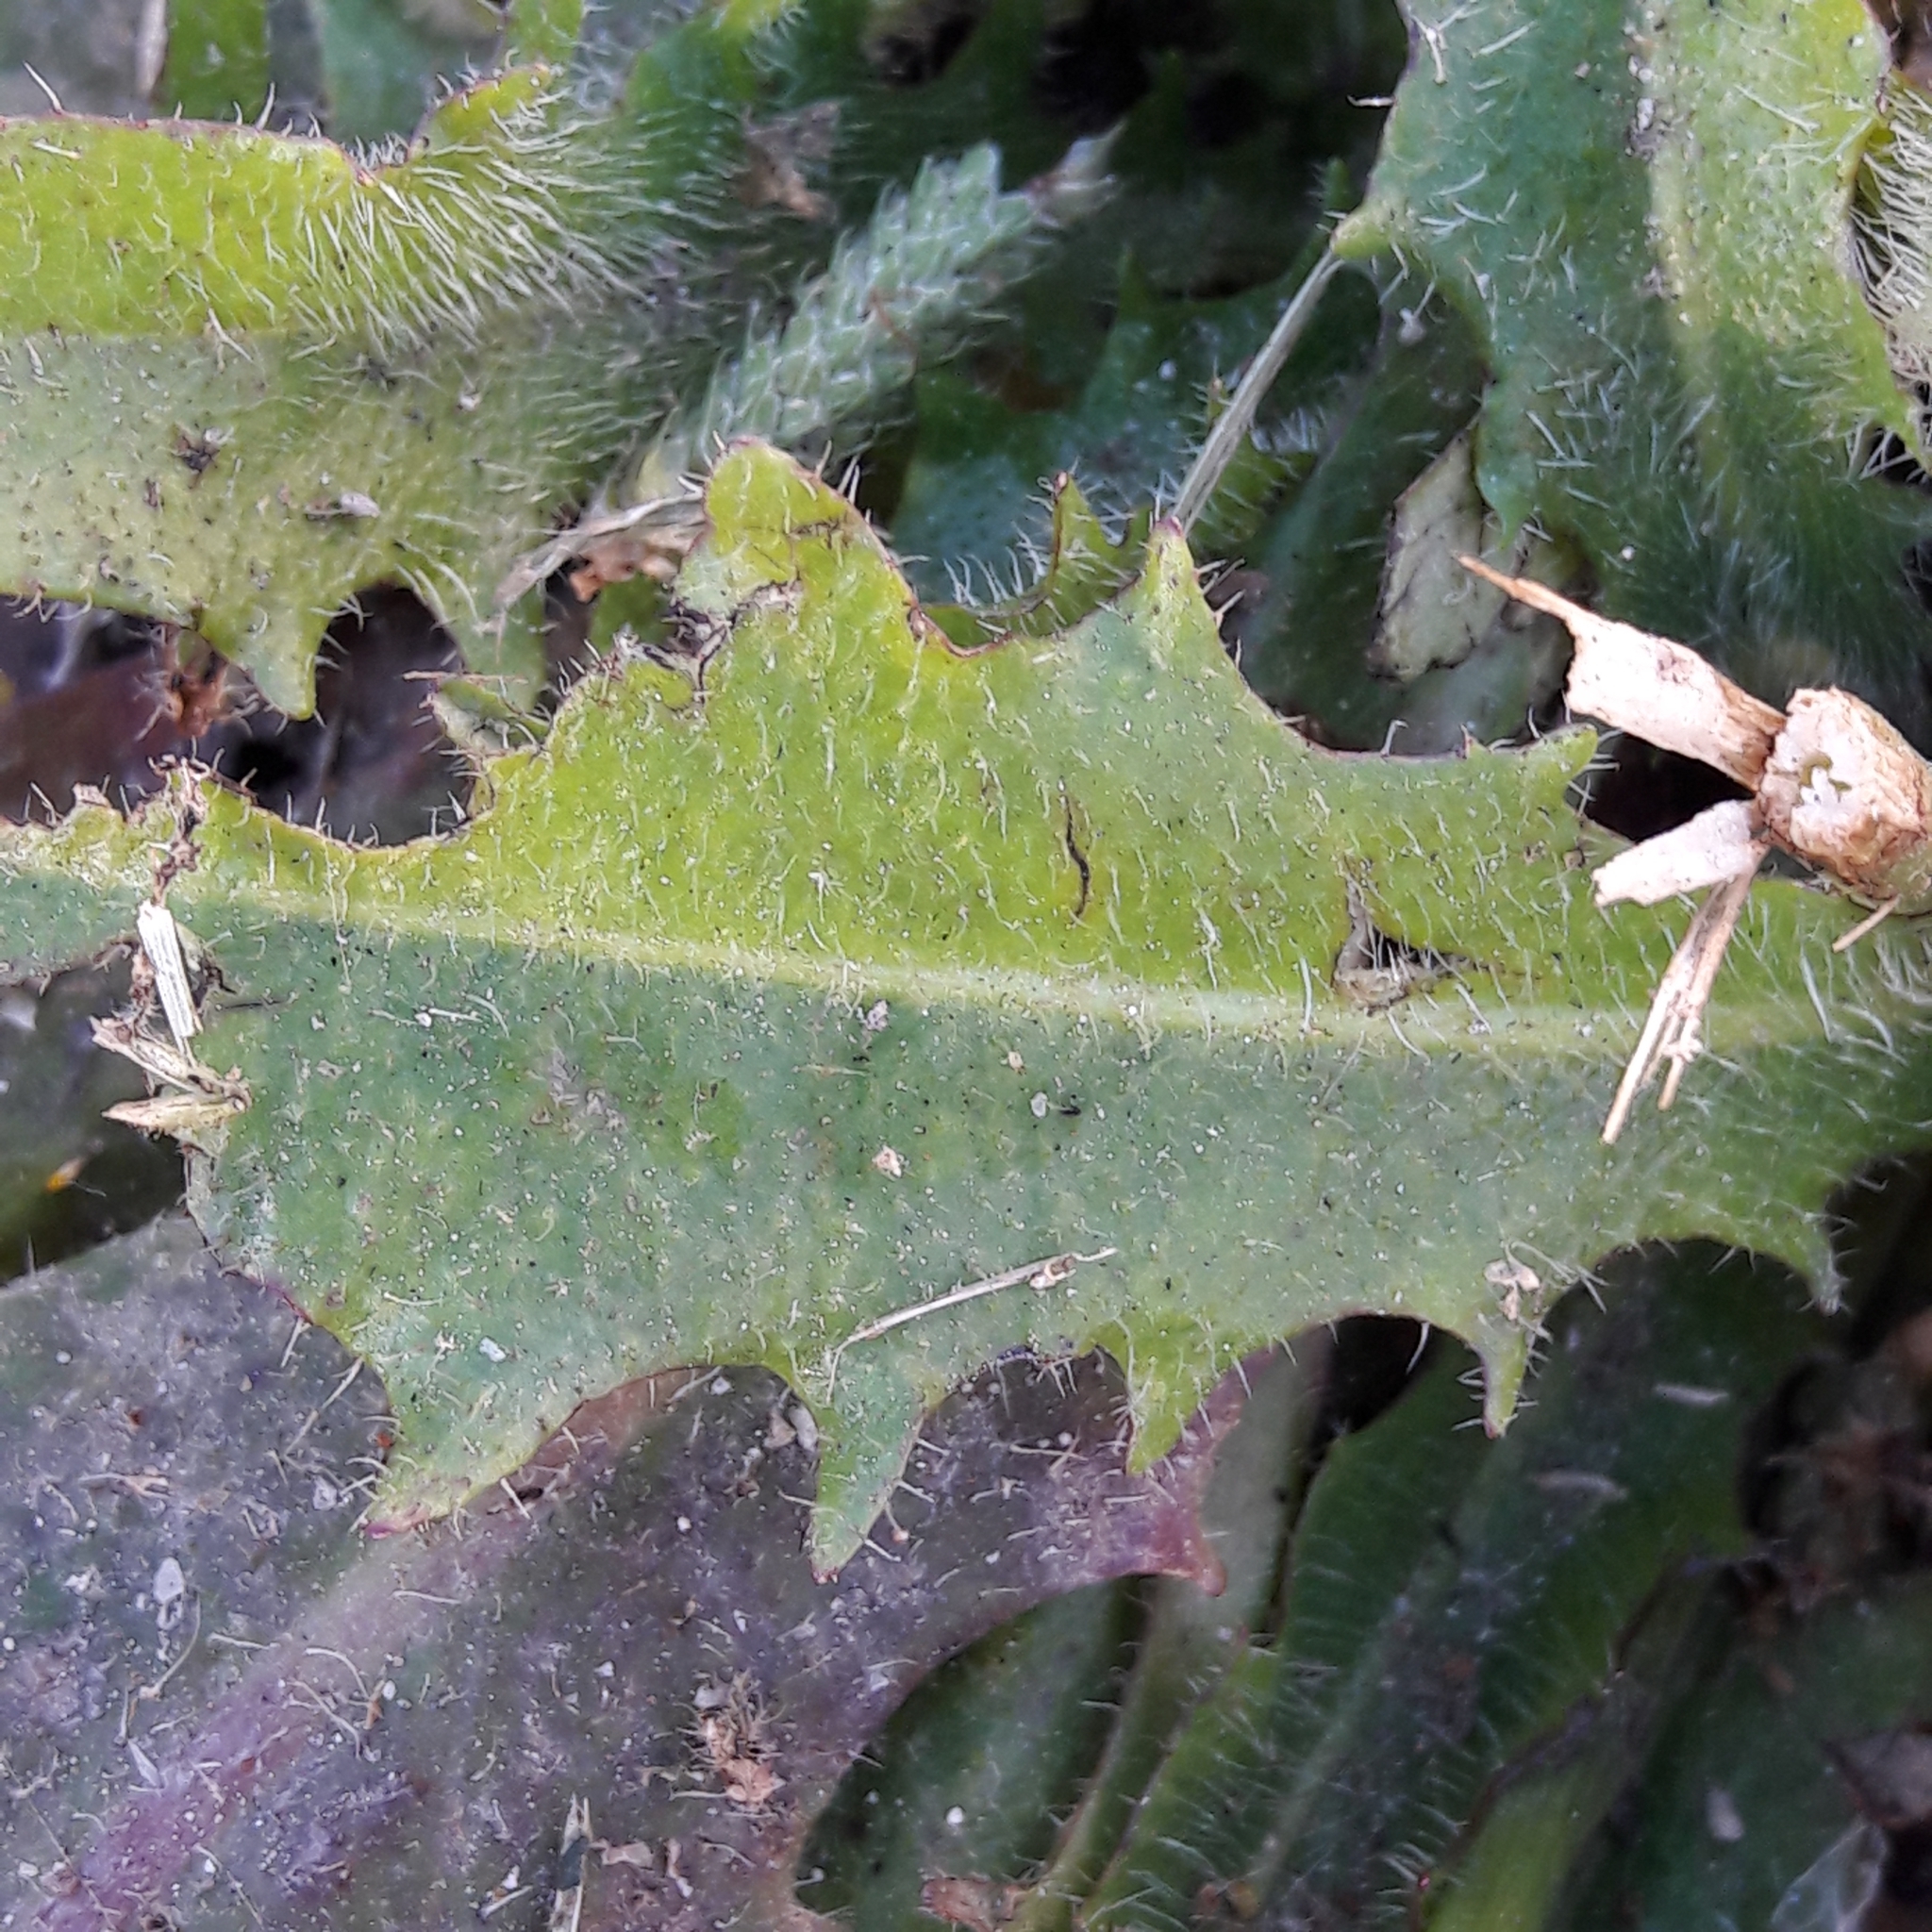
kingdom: Plantae
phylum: Tracheophyta
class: Magnoliopsida
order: Asterales
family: Asteraceae
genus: Hypochaeris
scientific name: Hypochaeris radicata
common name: Flatweed
